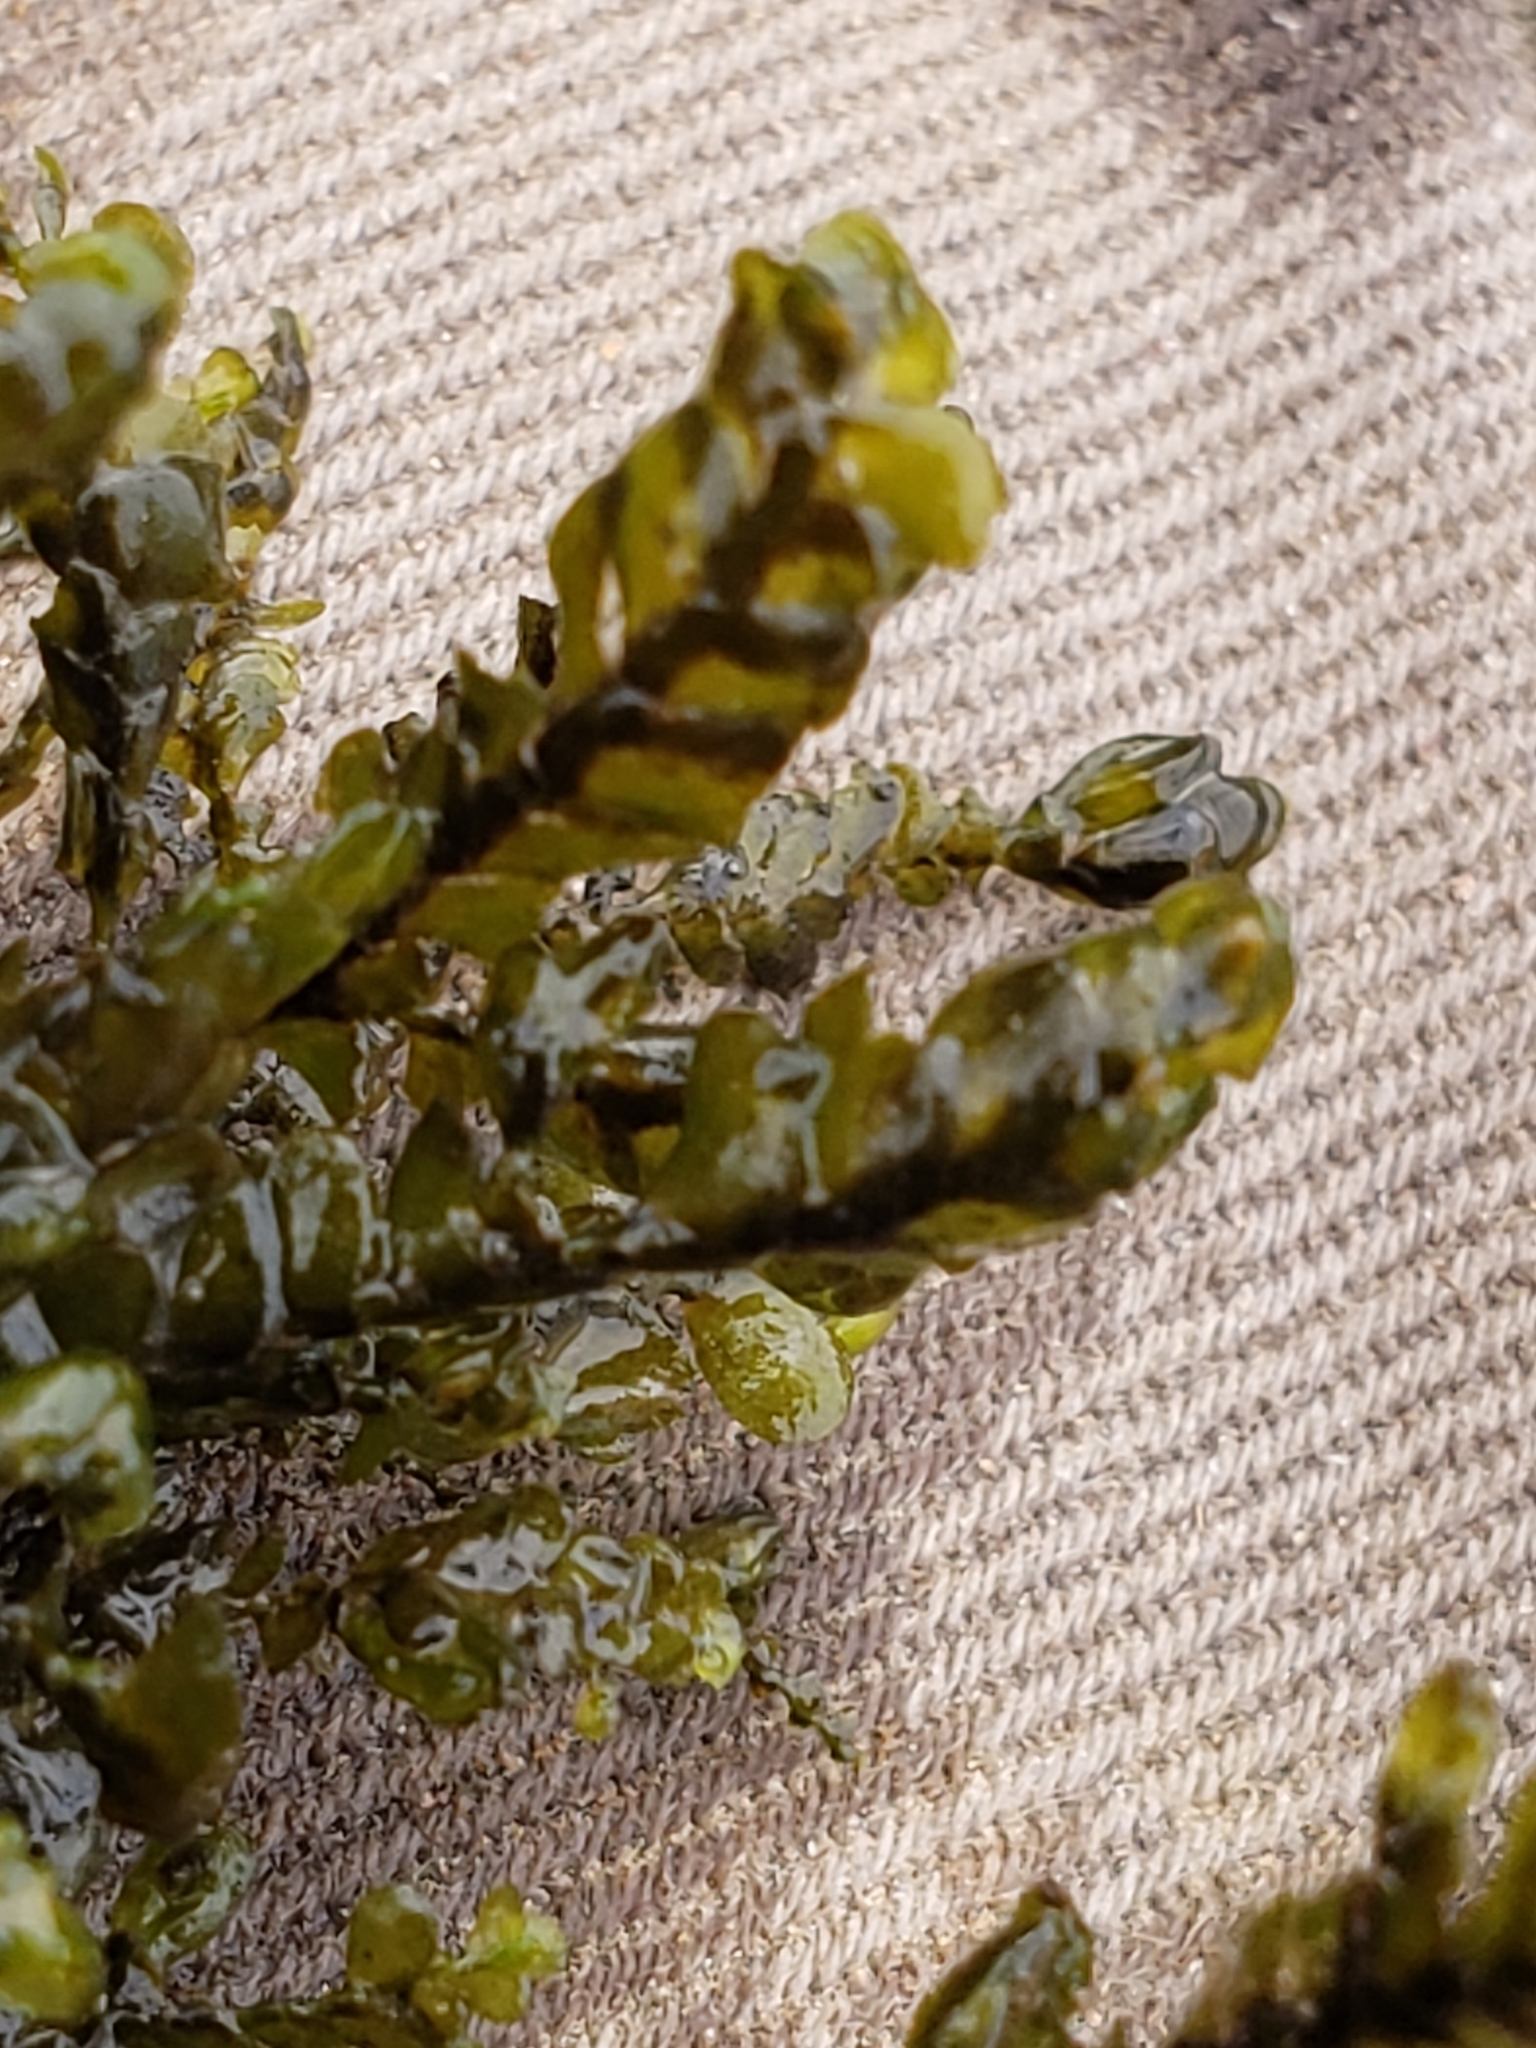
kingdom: Plantae
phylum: Marchantiophyta
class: Jungermanniopsida
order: Porellales
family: Porellaceae
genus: Porella
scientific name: Porella pinnata
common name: Pinnate scalewort
